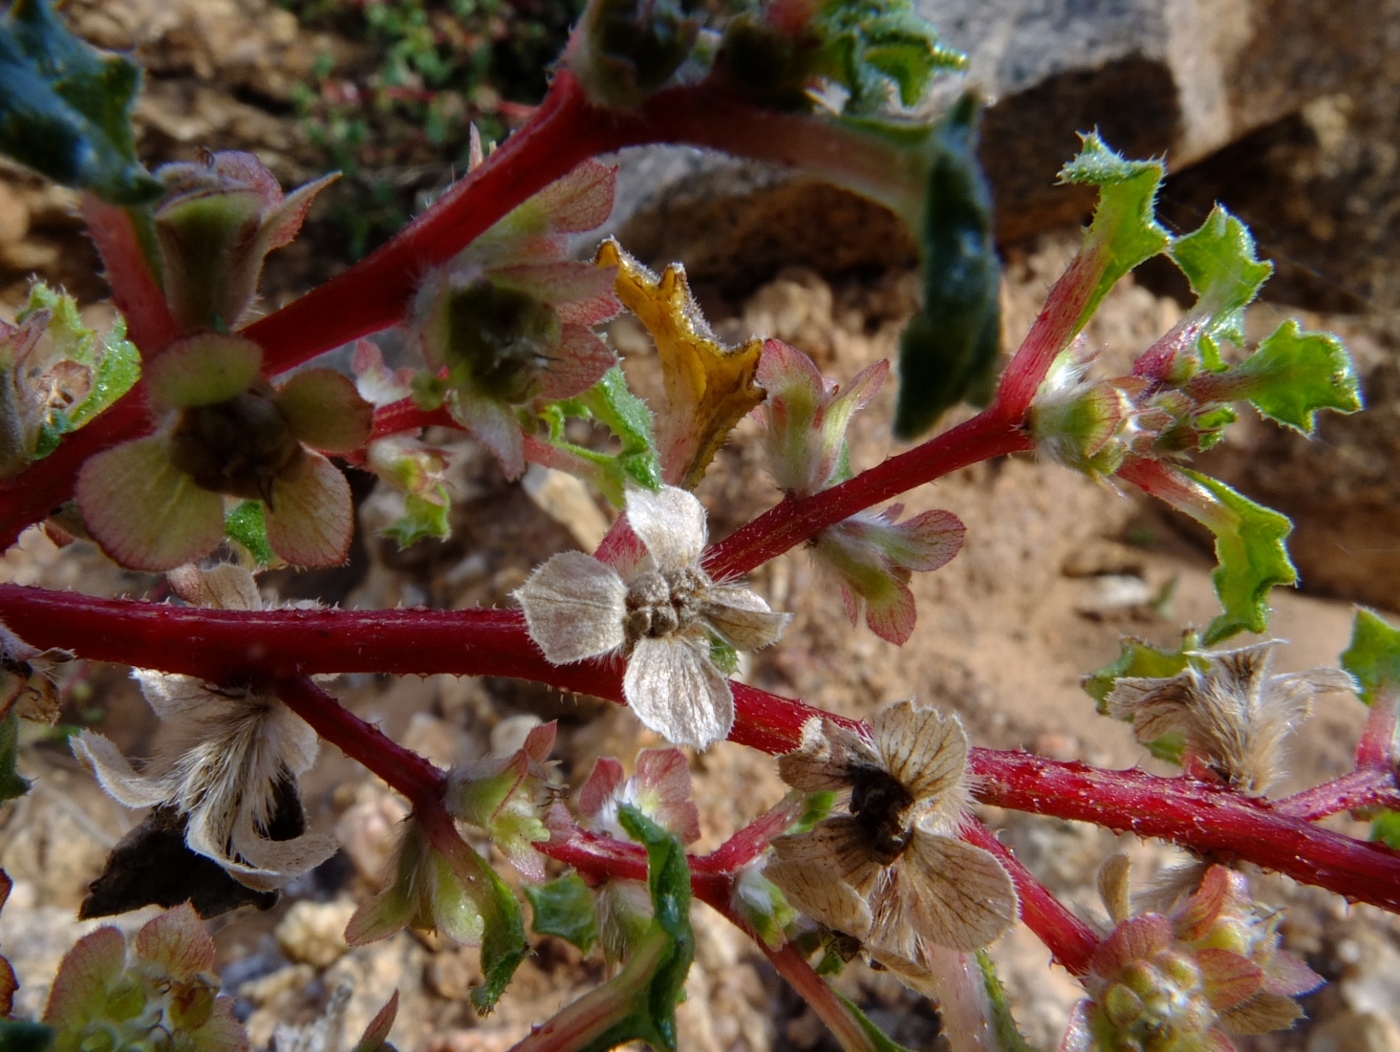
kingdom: Plantae
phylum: Tracheophyta
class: Magnoliopsida
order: Rosales
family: Urticaceae
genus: Forsskaolea
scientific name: Forsskaolea candida
